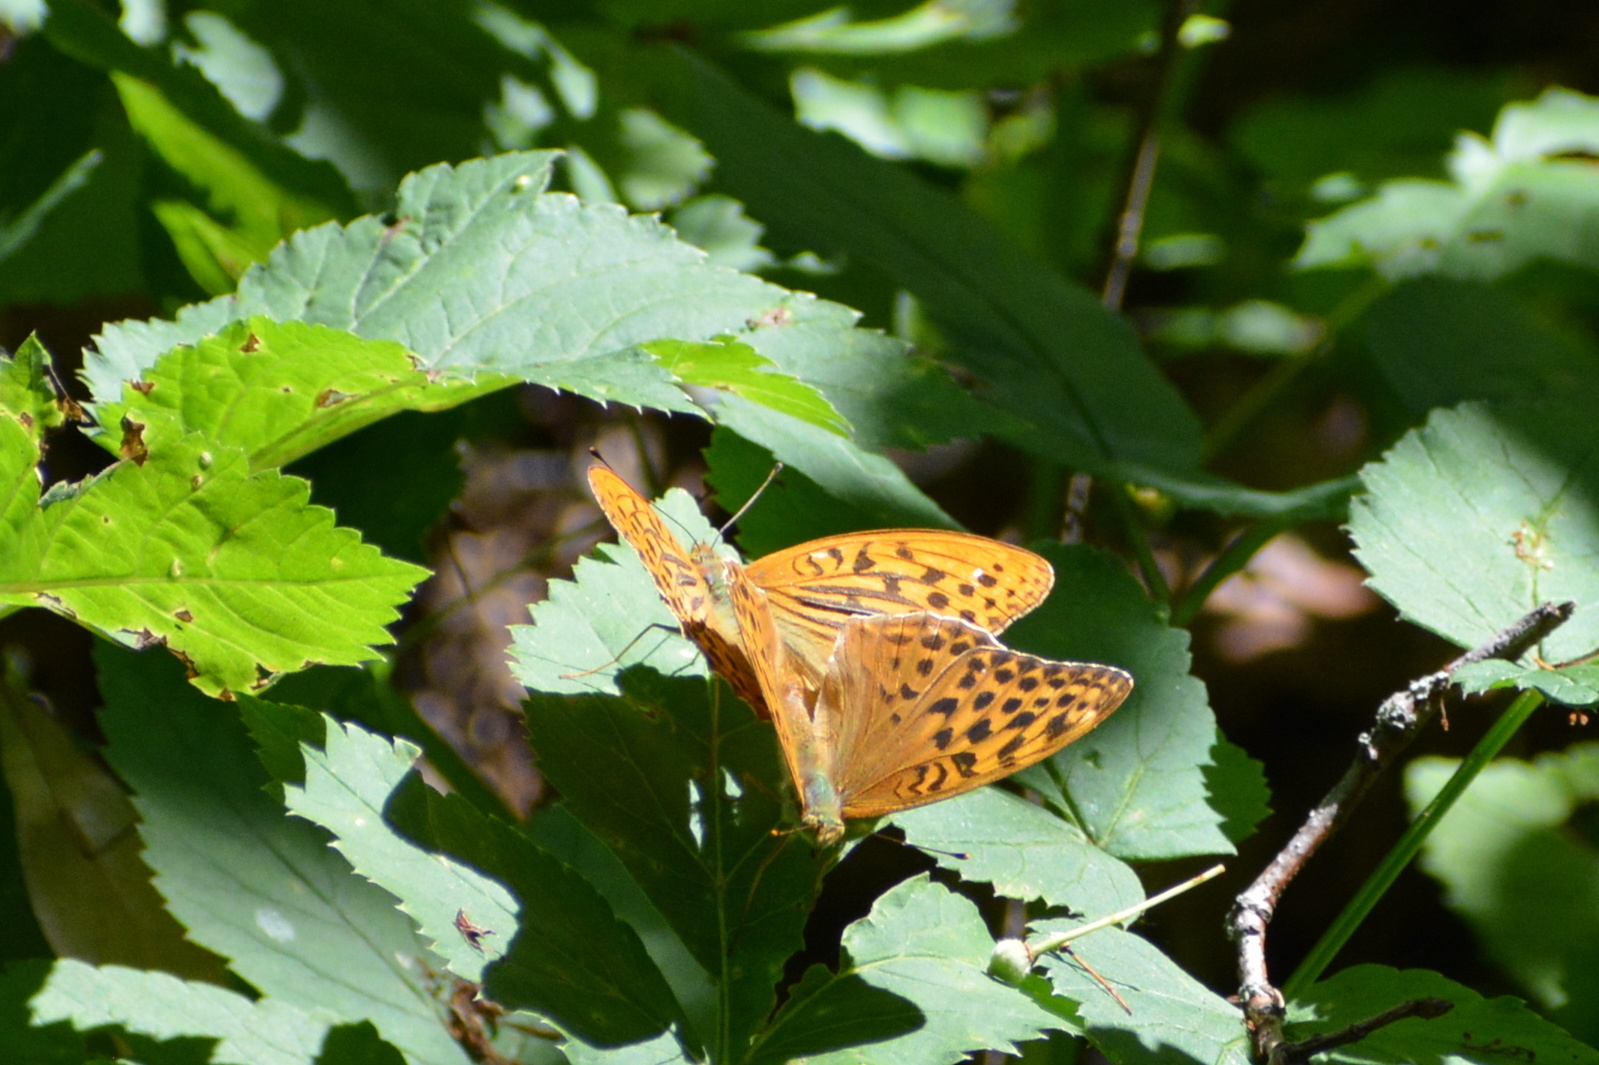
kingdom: Animalia
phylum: Arthropoda
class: Insecta
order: Lepidoptera
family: Nymphalidae
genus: Argynnis
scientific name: Argynnis paphia
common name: Silver-washed fritillary
